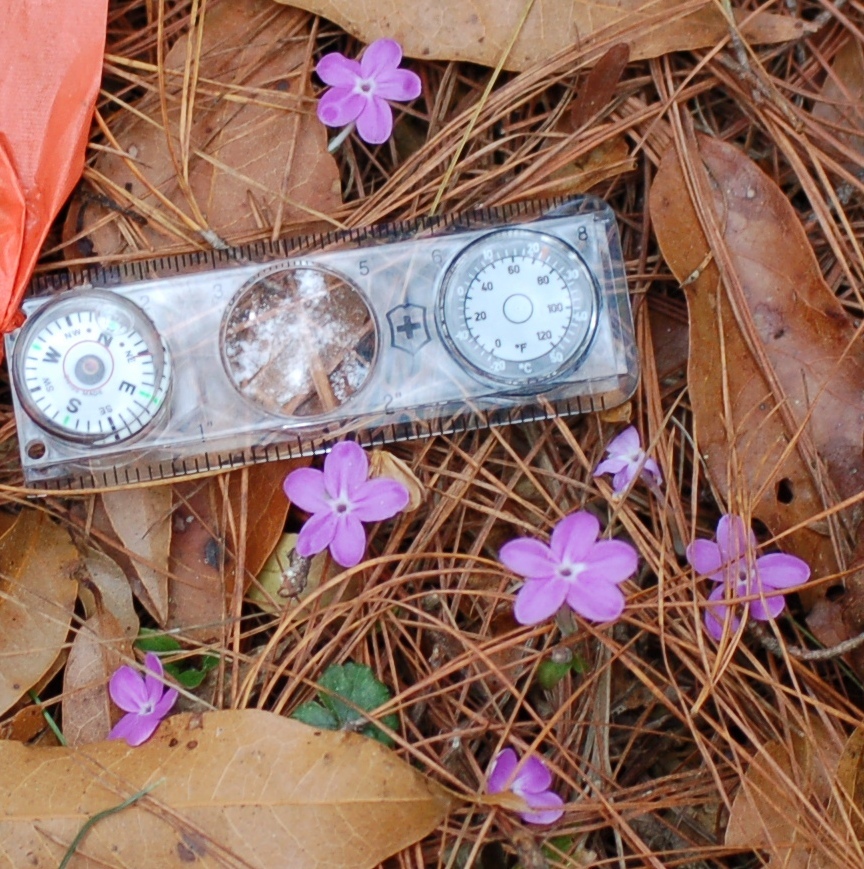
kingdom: Plantae
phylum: Tracheophyta
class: Magnoliopsida
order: Lamiales
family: Acanthaceae
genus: Pseuderanthemum
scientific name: Pseuderanthemum praecox
